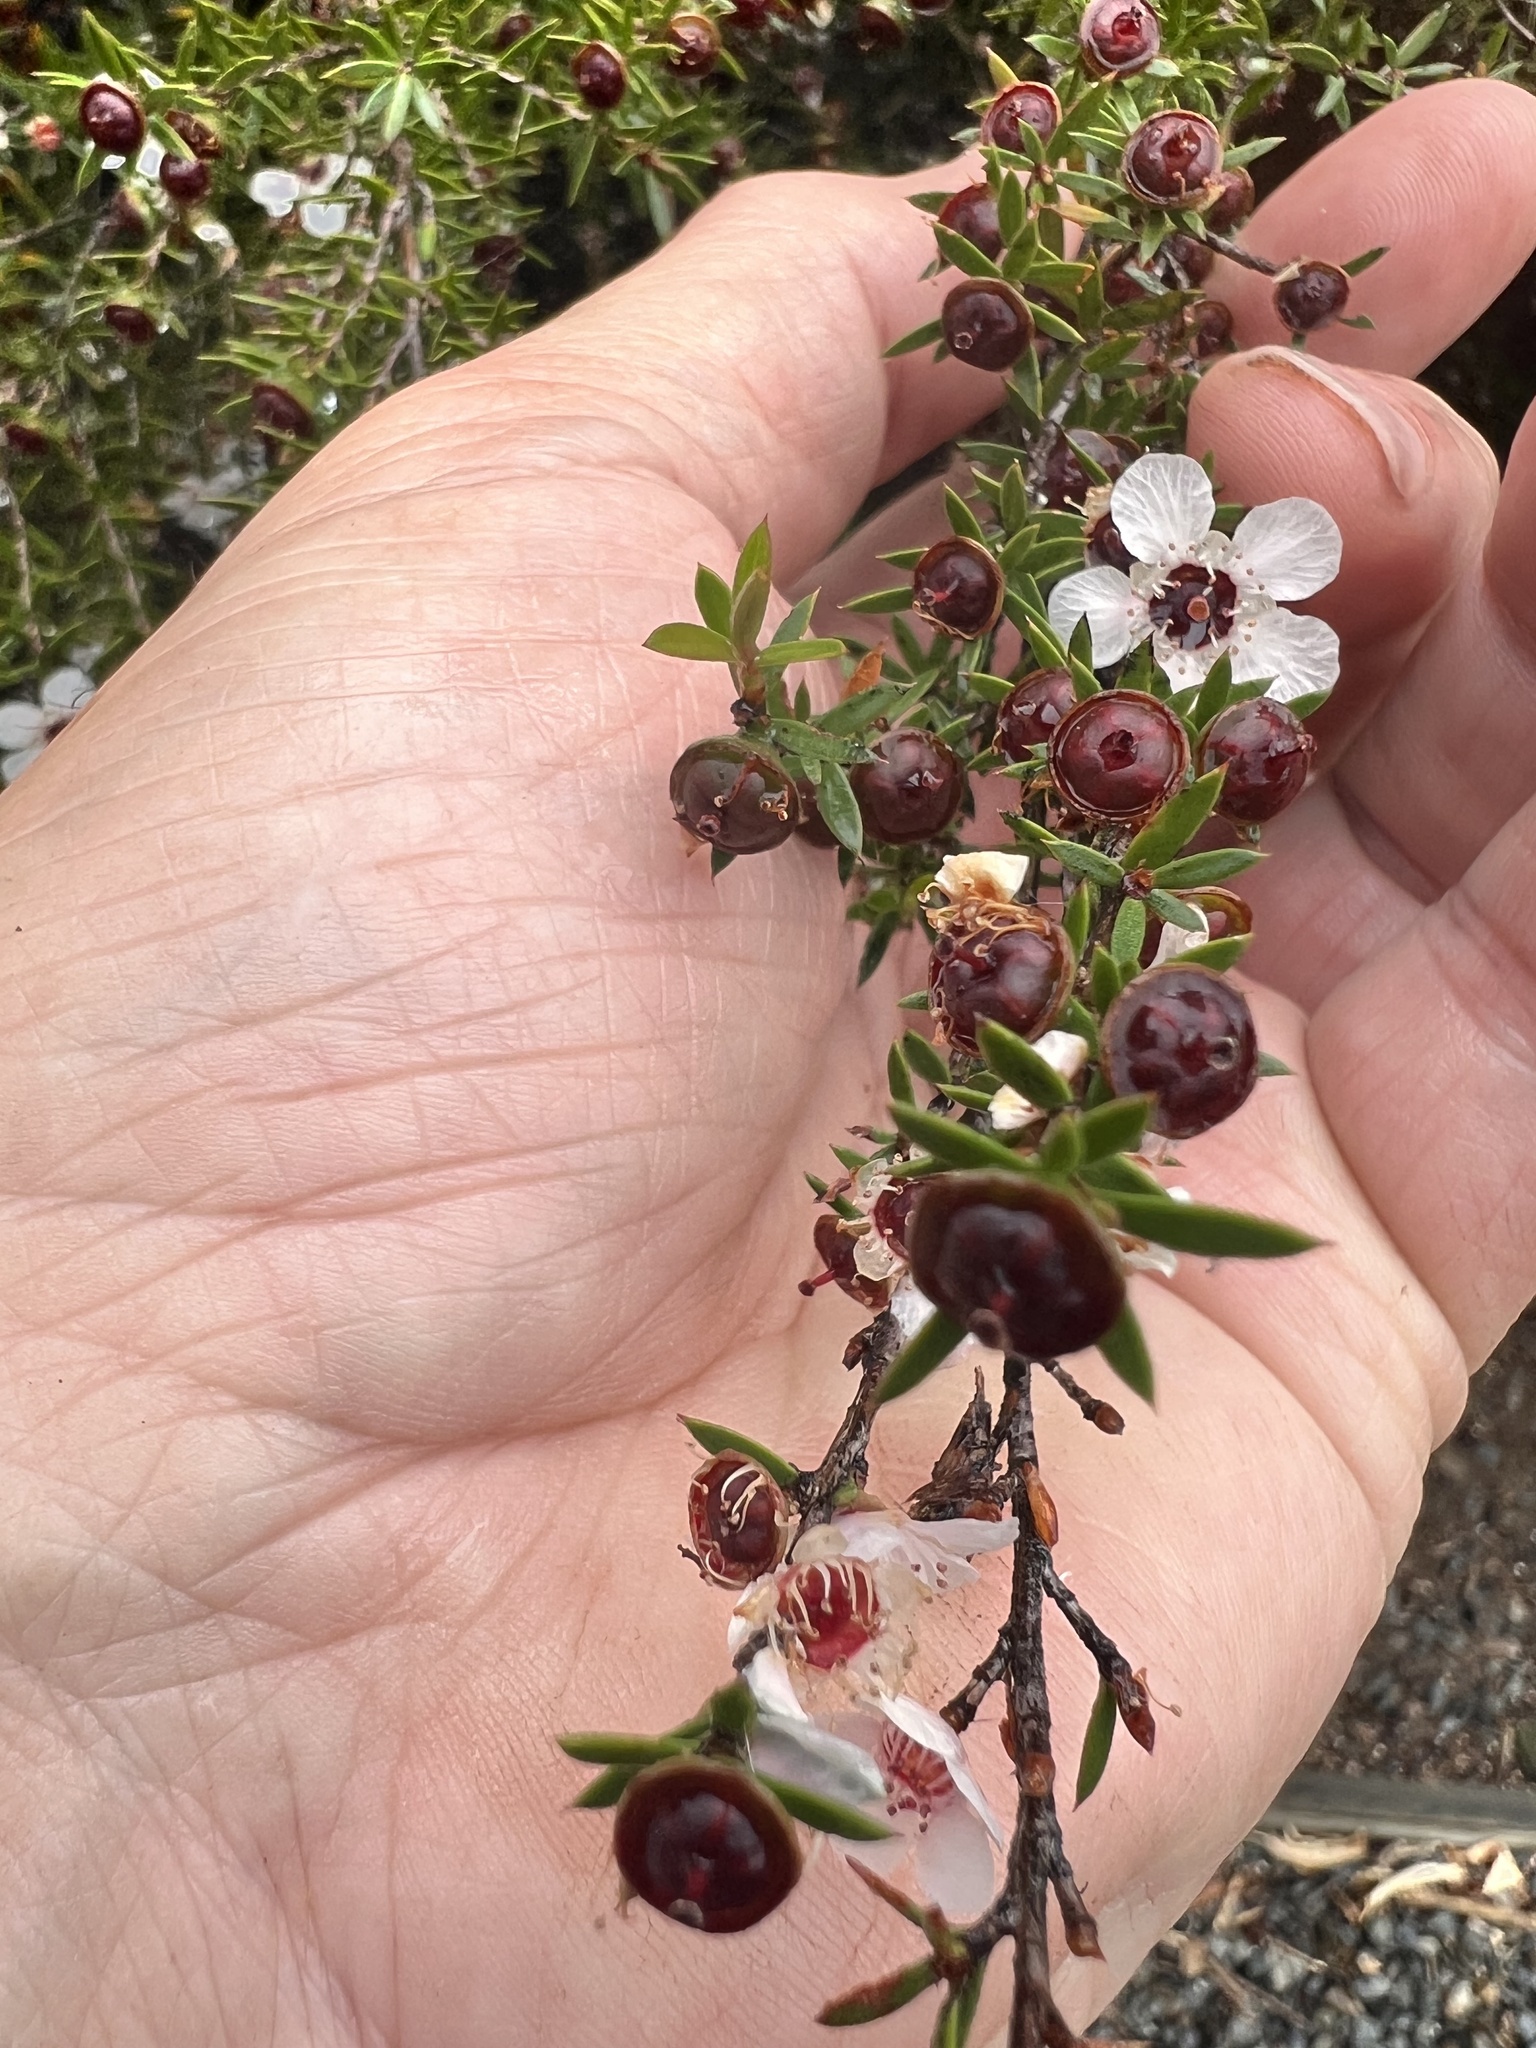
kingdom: Plantae
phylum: Tracheophyta
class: Magnoliopsida
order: Myrtales
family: Myrtaceae
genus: Leptospermum
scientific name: Leptospermum scoparium
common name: Broom tea-tree
